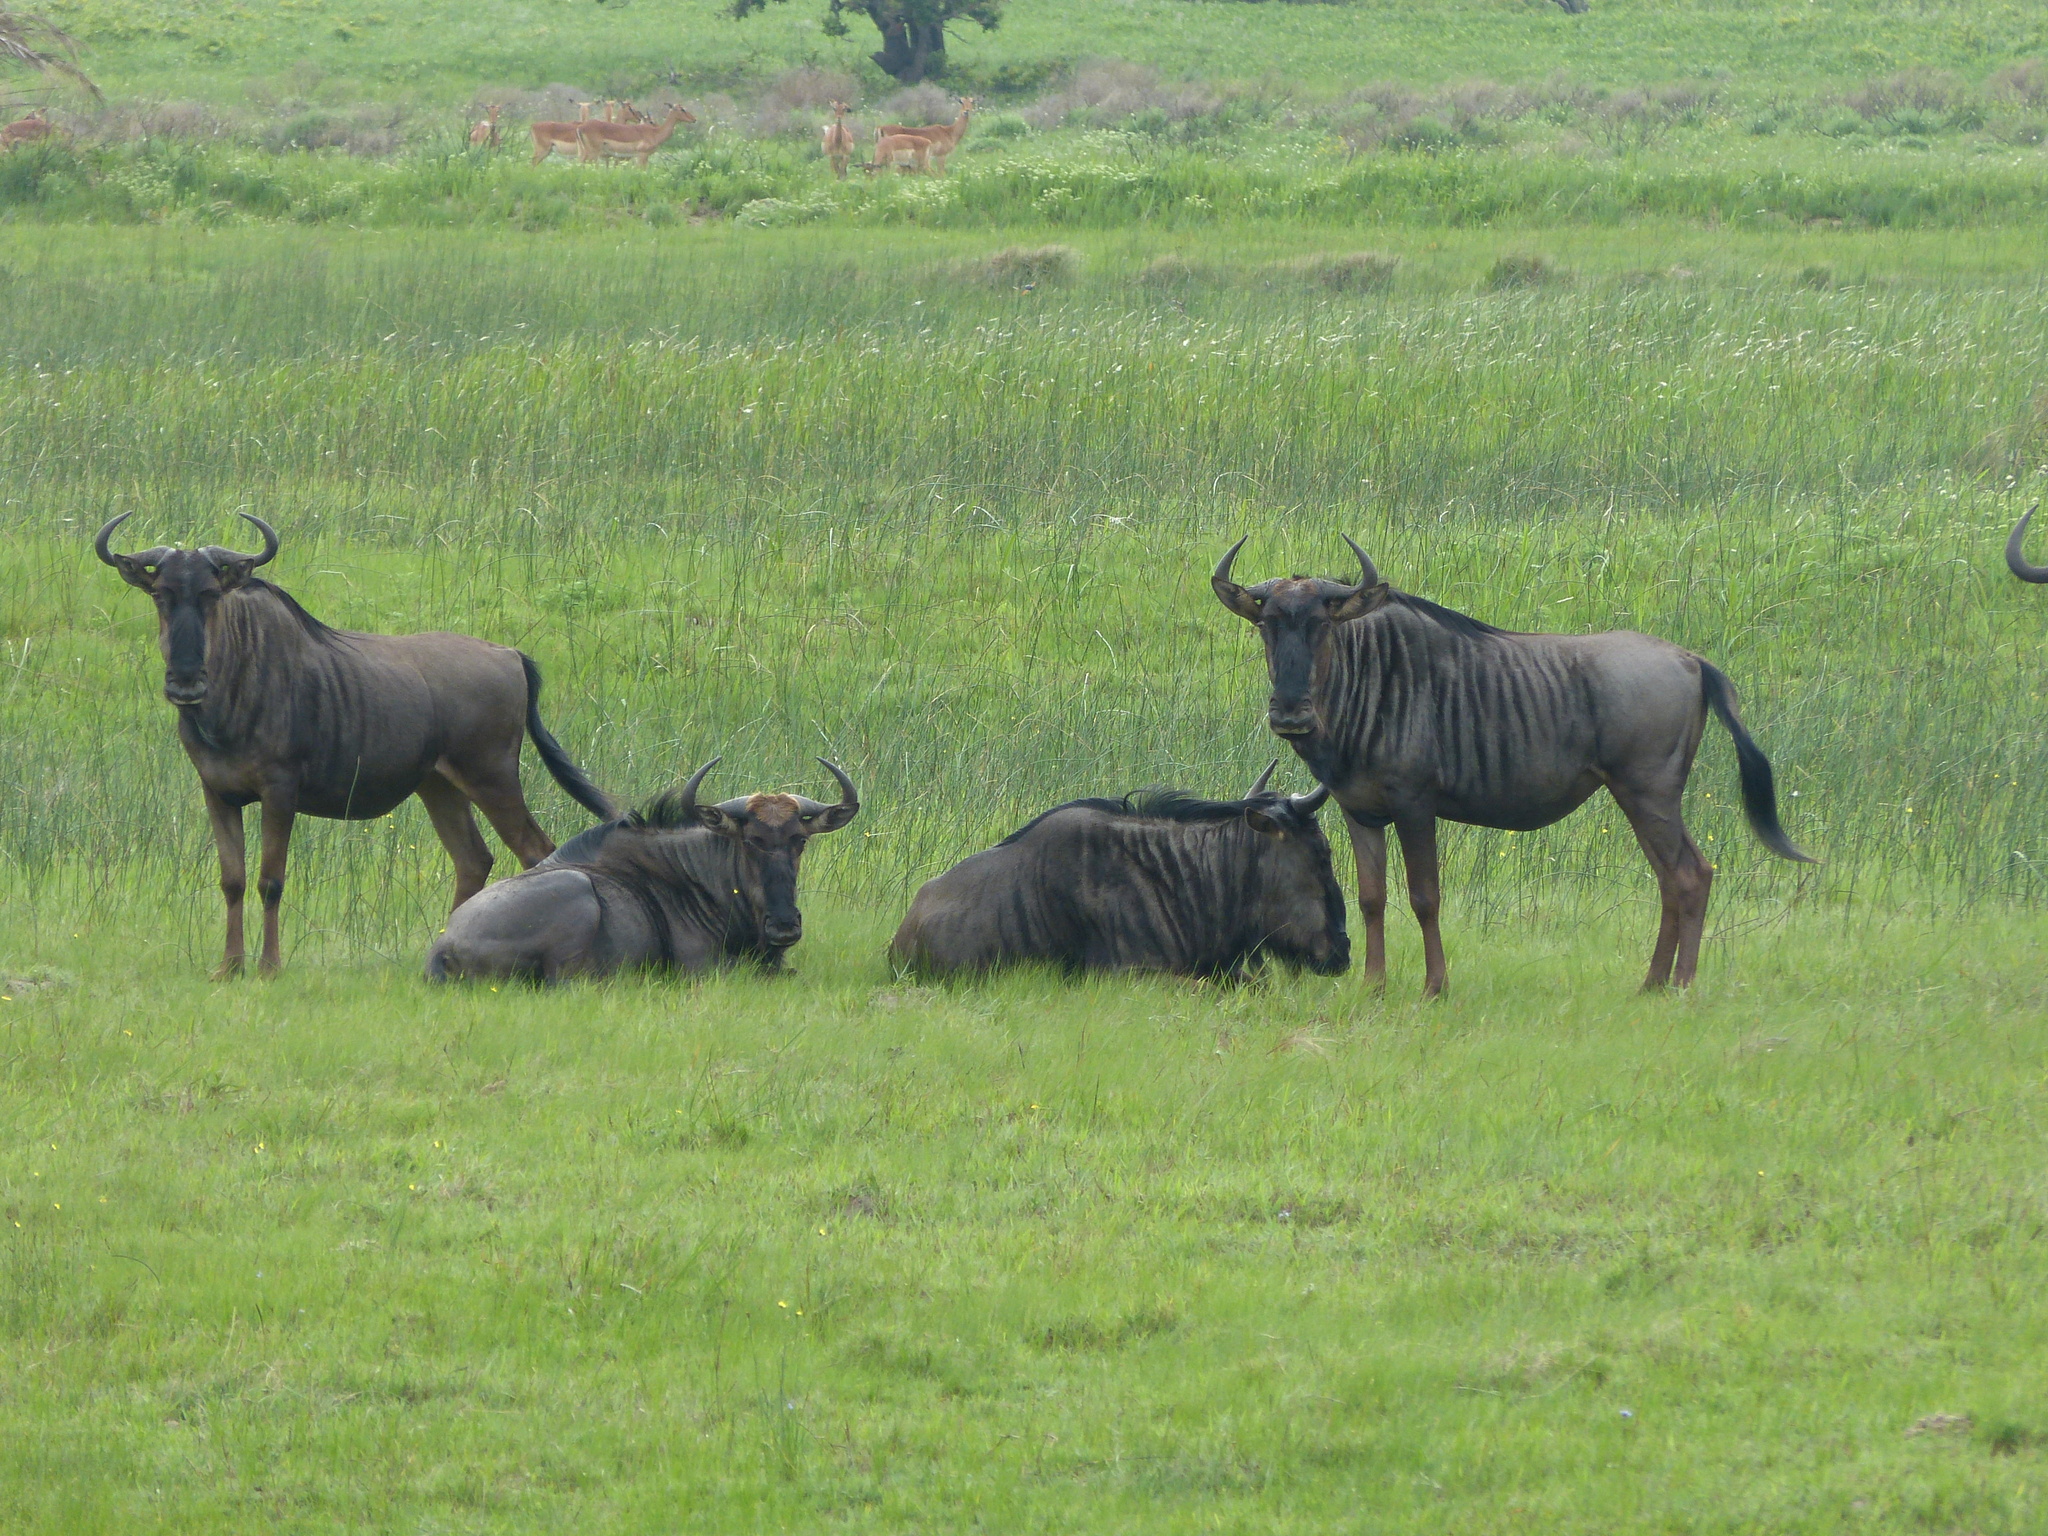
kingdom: Animalia
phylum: Chordata
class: Mammalia
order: Artiodactyla
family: Bovidae
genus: Connochaetes
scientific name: Connochaetes taurinus
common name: Blue wildebeest
